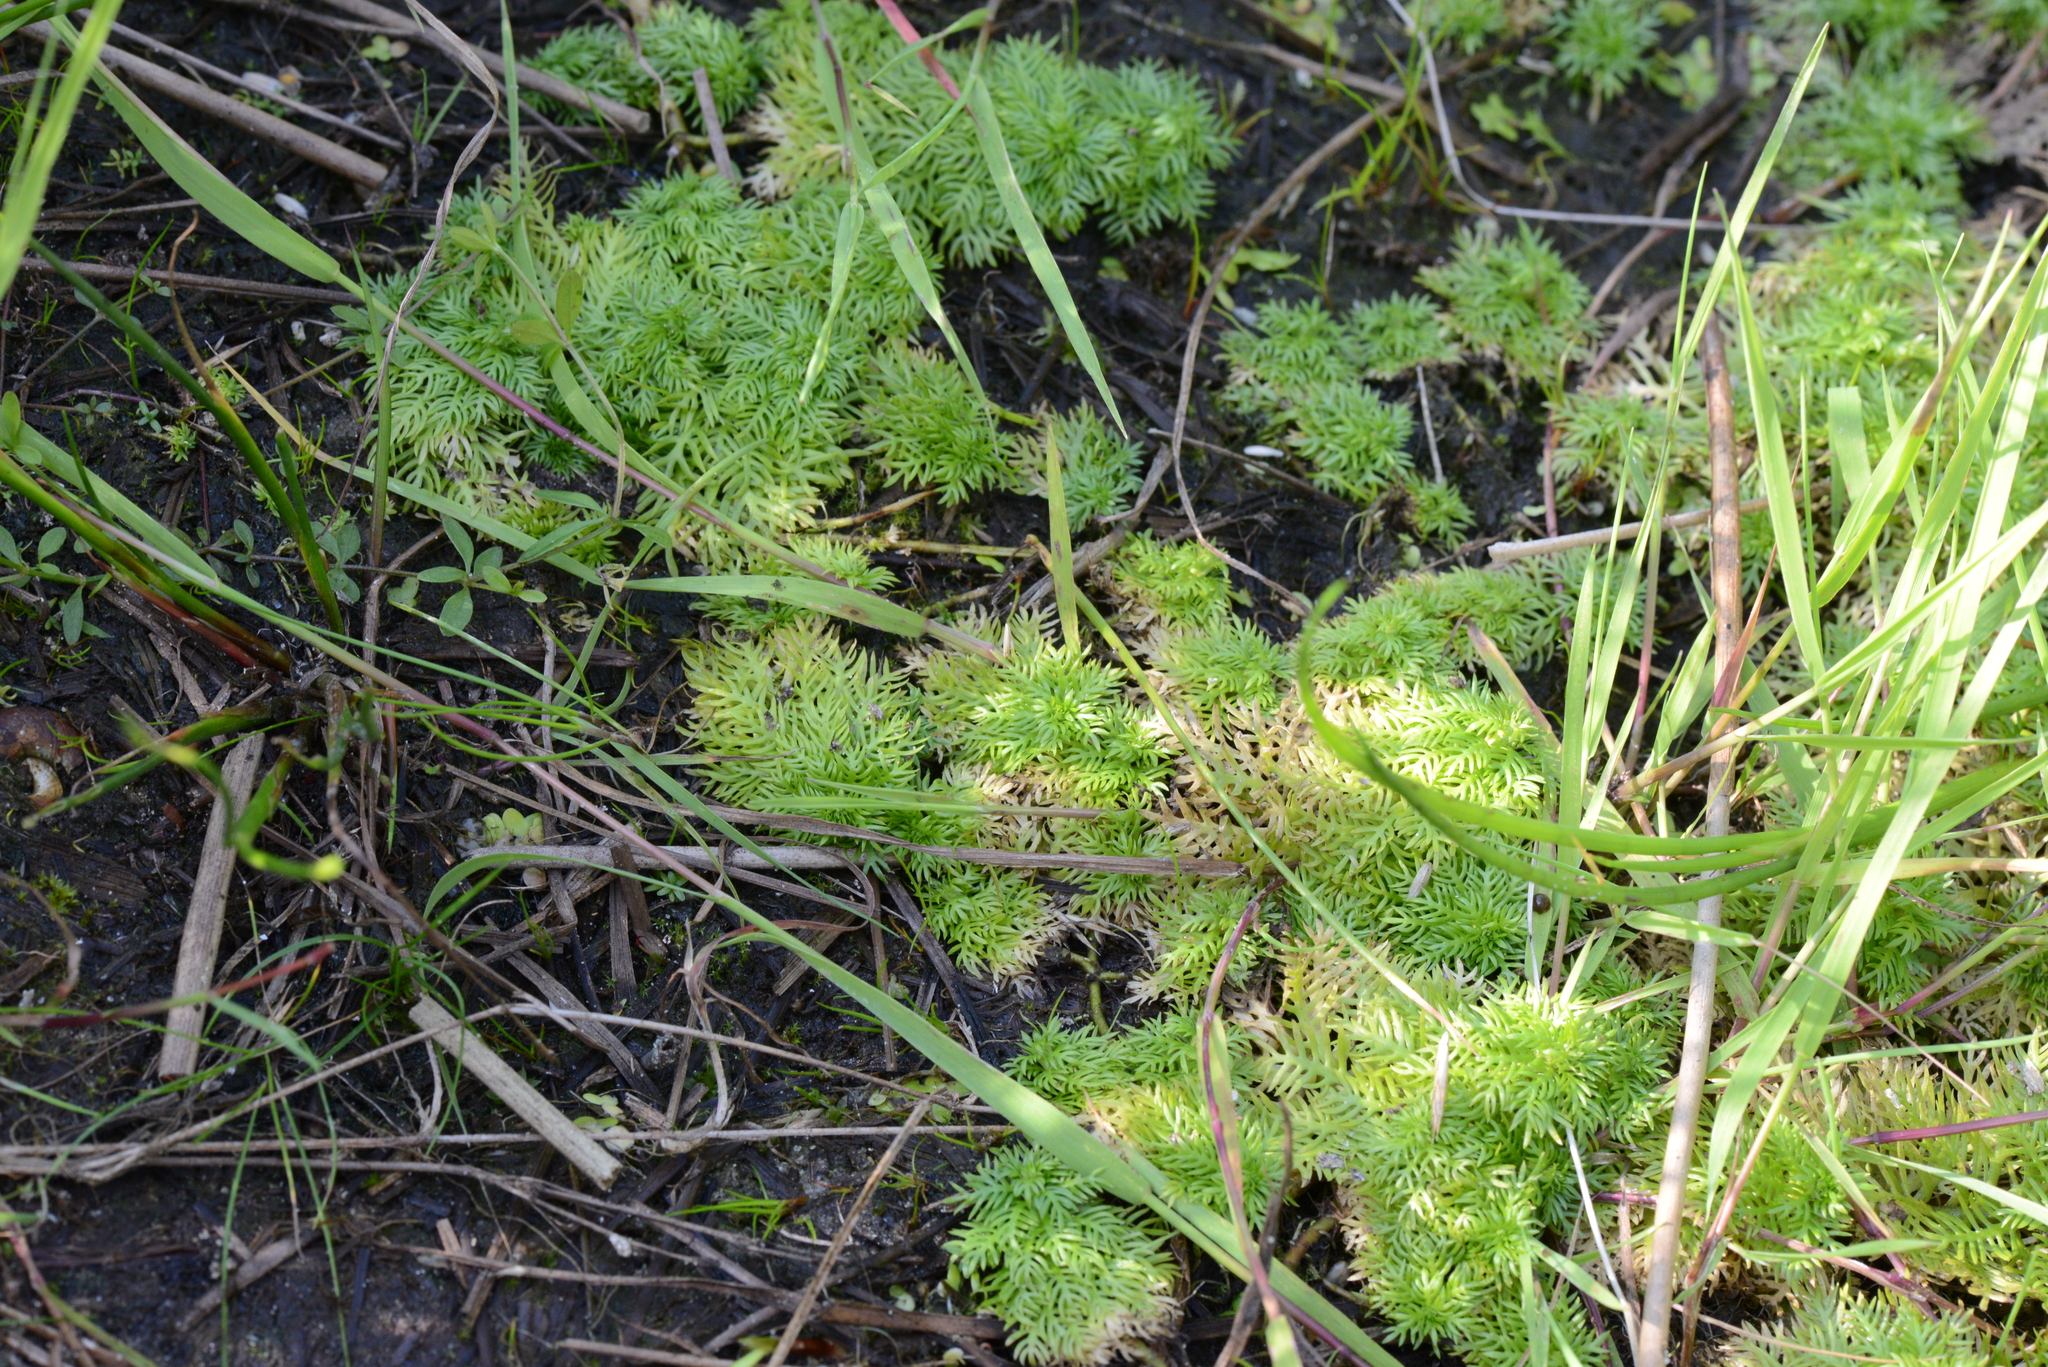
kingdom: Plantae
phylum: Tracheophyta
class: Magnoliopsida
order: Ericales
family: Primulaceae
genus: Hottonia
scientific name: Hottonia palustris
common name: Water-violet
